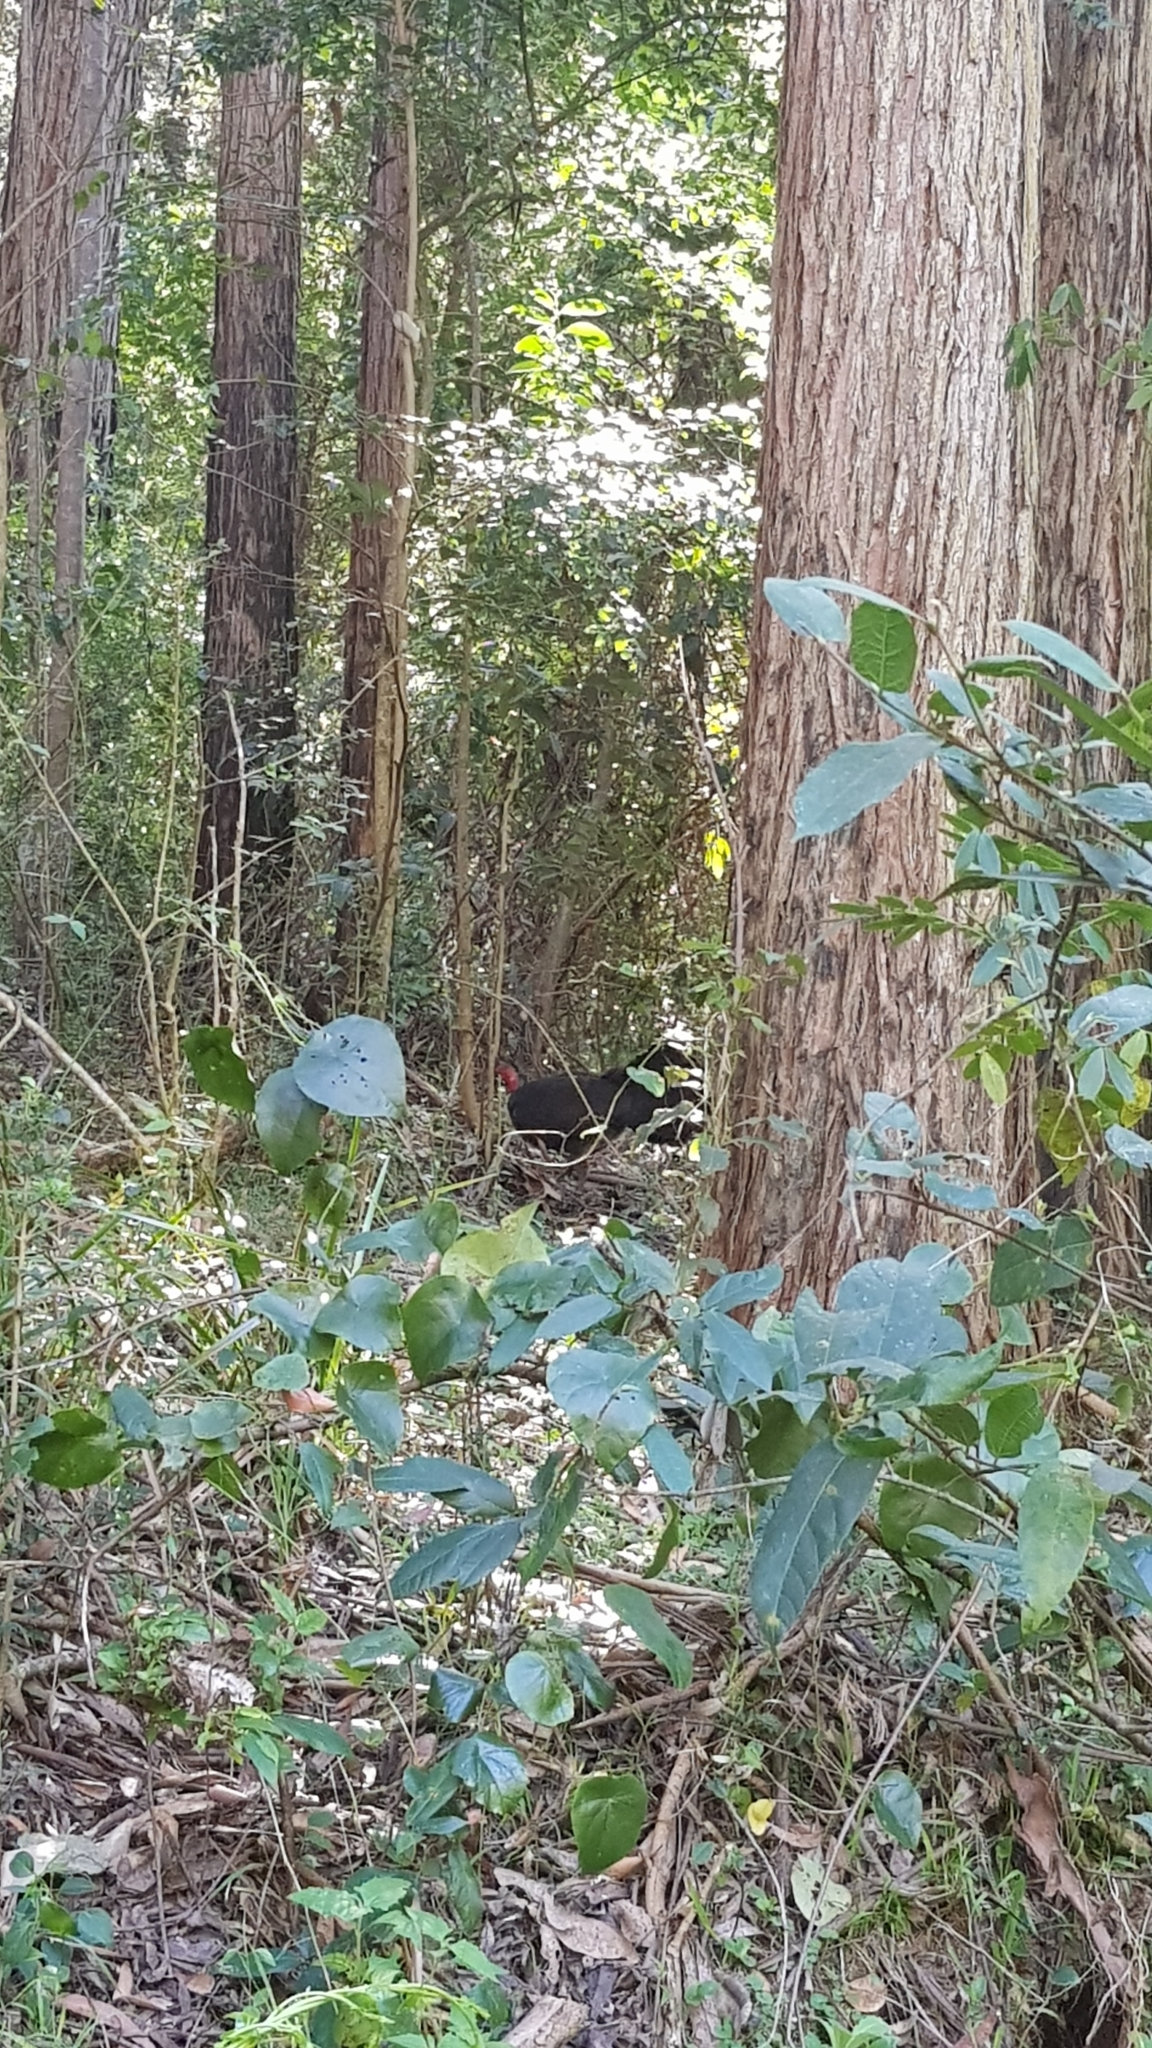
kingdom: Animalia
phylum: Chordata
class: Aves
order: Galliformes
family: Megapodiidae
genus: Alectura
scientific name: Alectura lathami
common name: Australian brushturkey
